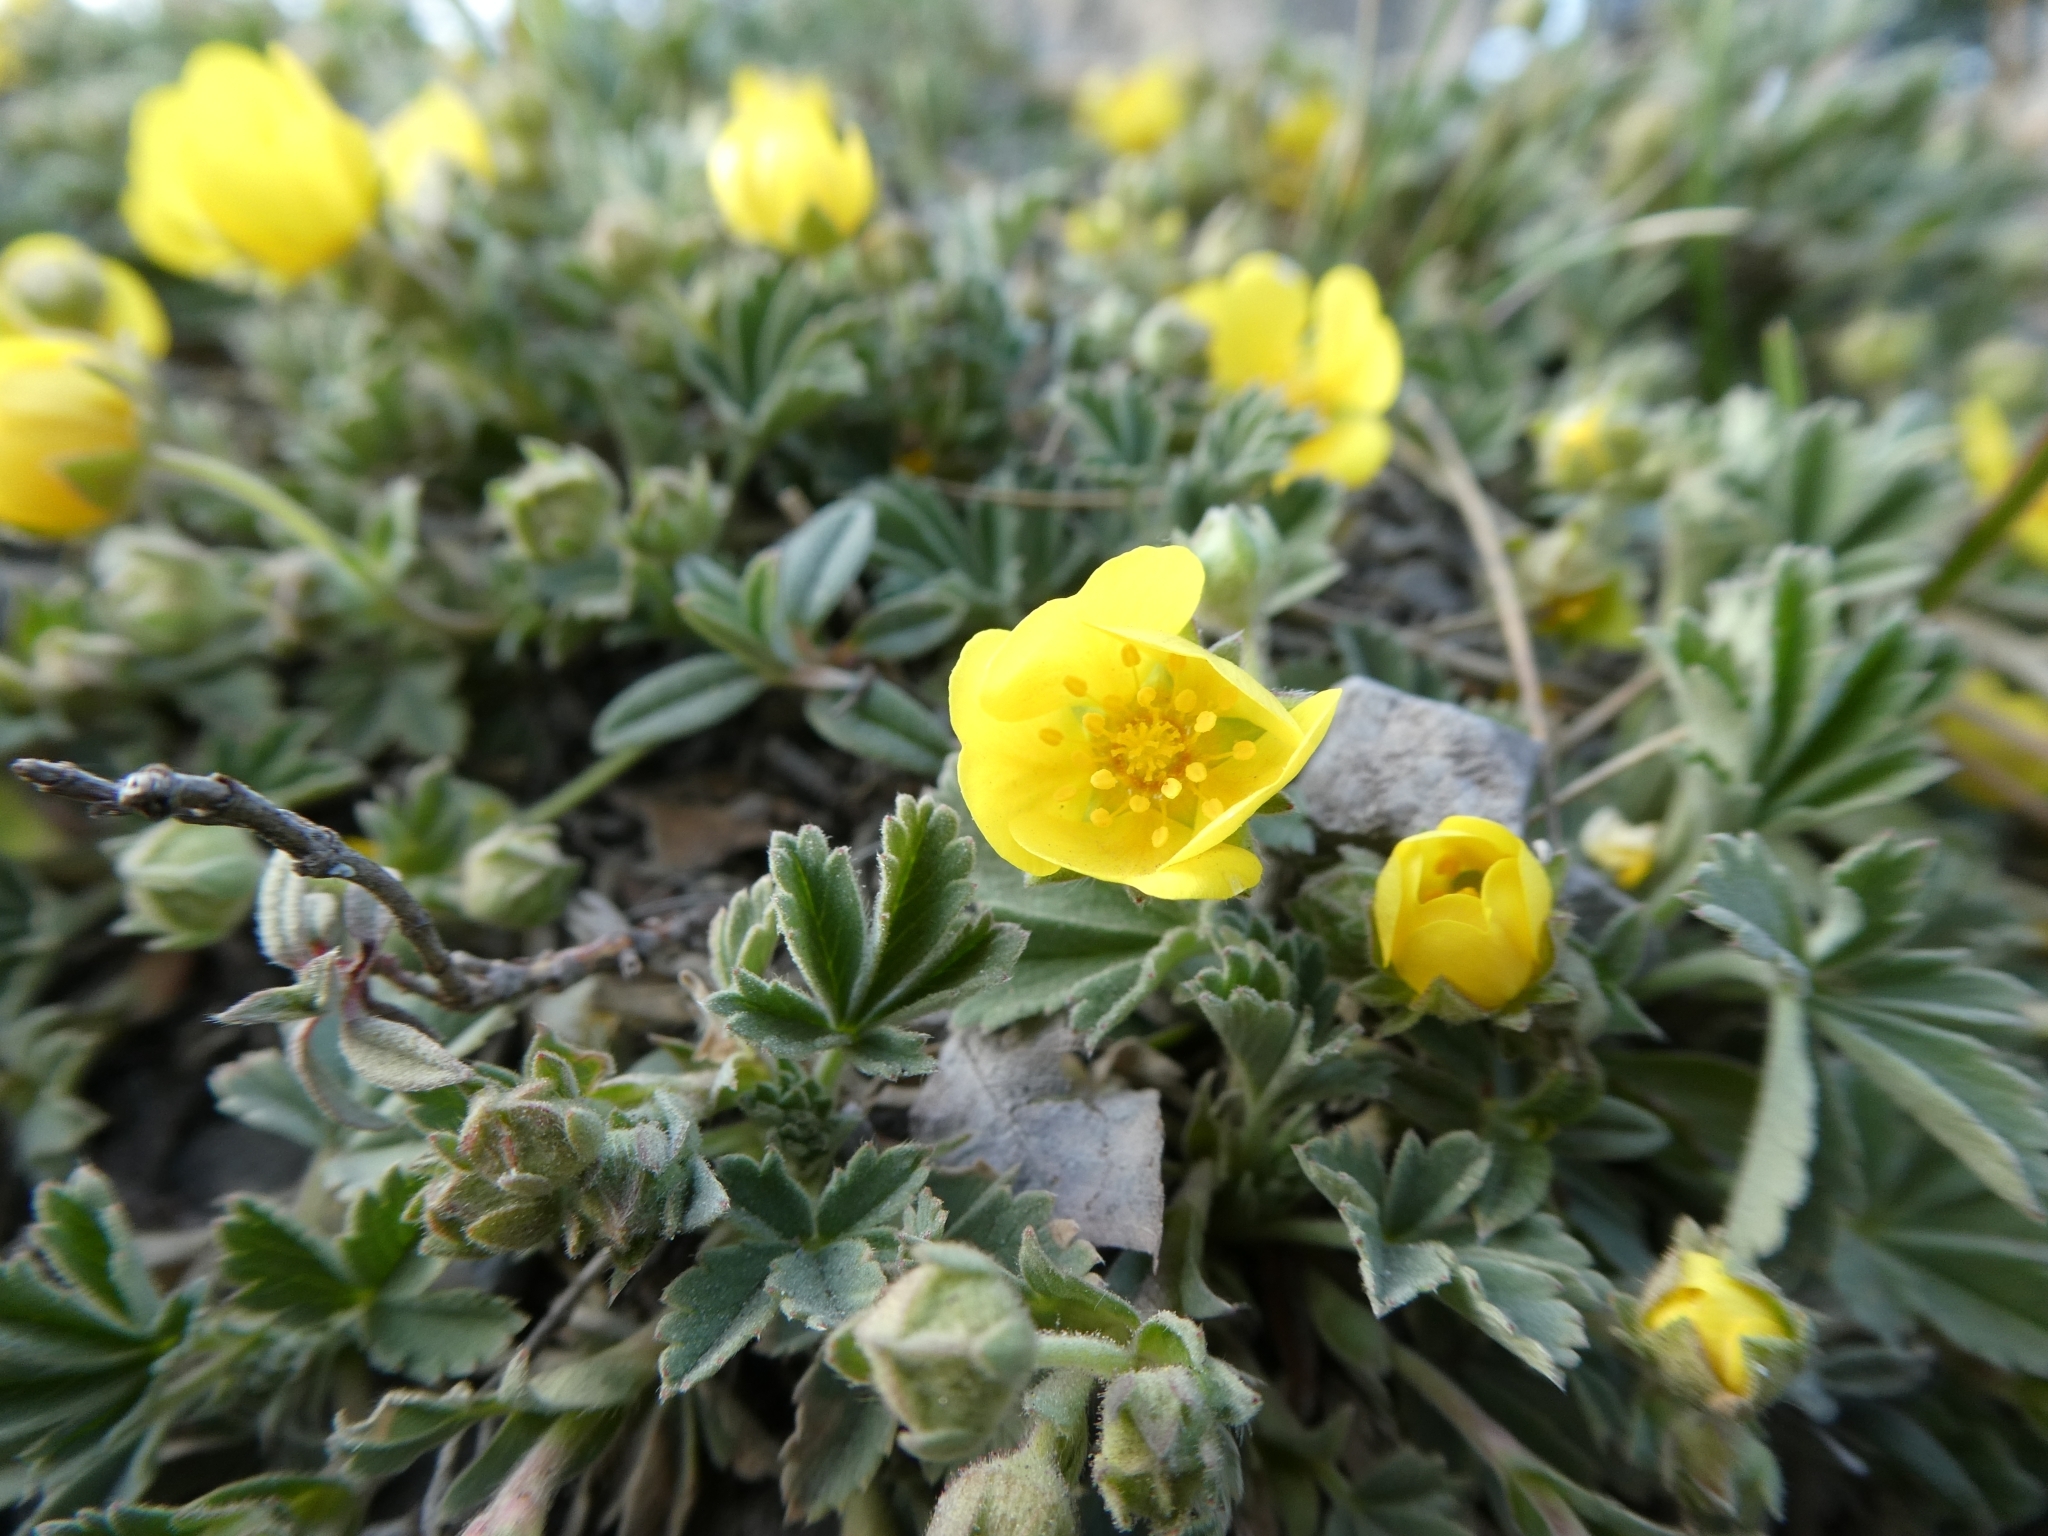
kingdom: Plantae
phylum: Tracheophyta
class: Magnoliopsida
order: Rosales
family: Rosaceae
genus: Potentilla
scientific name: Potentilla incana
